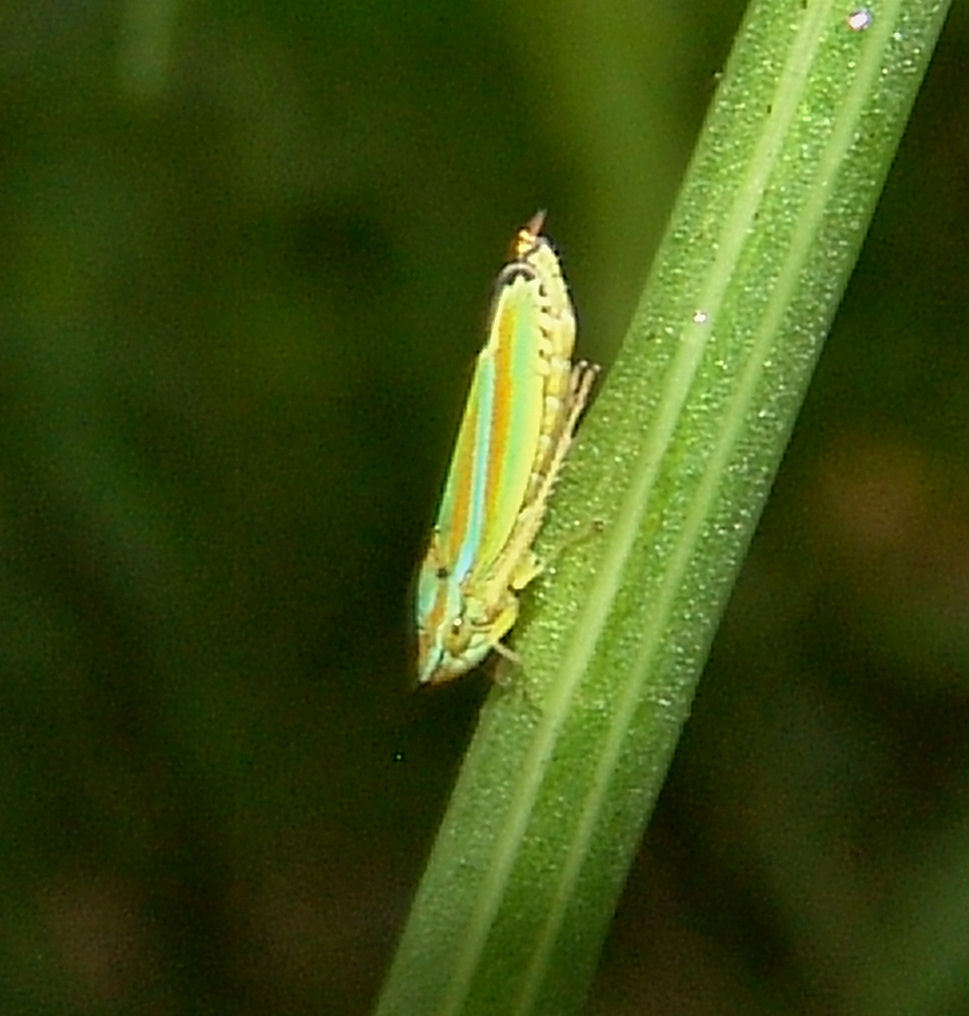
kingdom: Animalia
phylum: Arthropoda
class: Insecta
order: Hemiptera
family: Cicadellidae
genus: Graphocephala
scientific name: Graphocephala versuta
